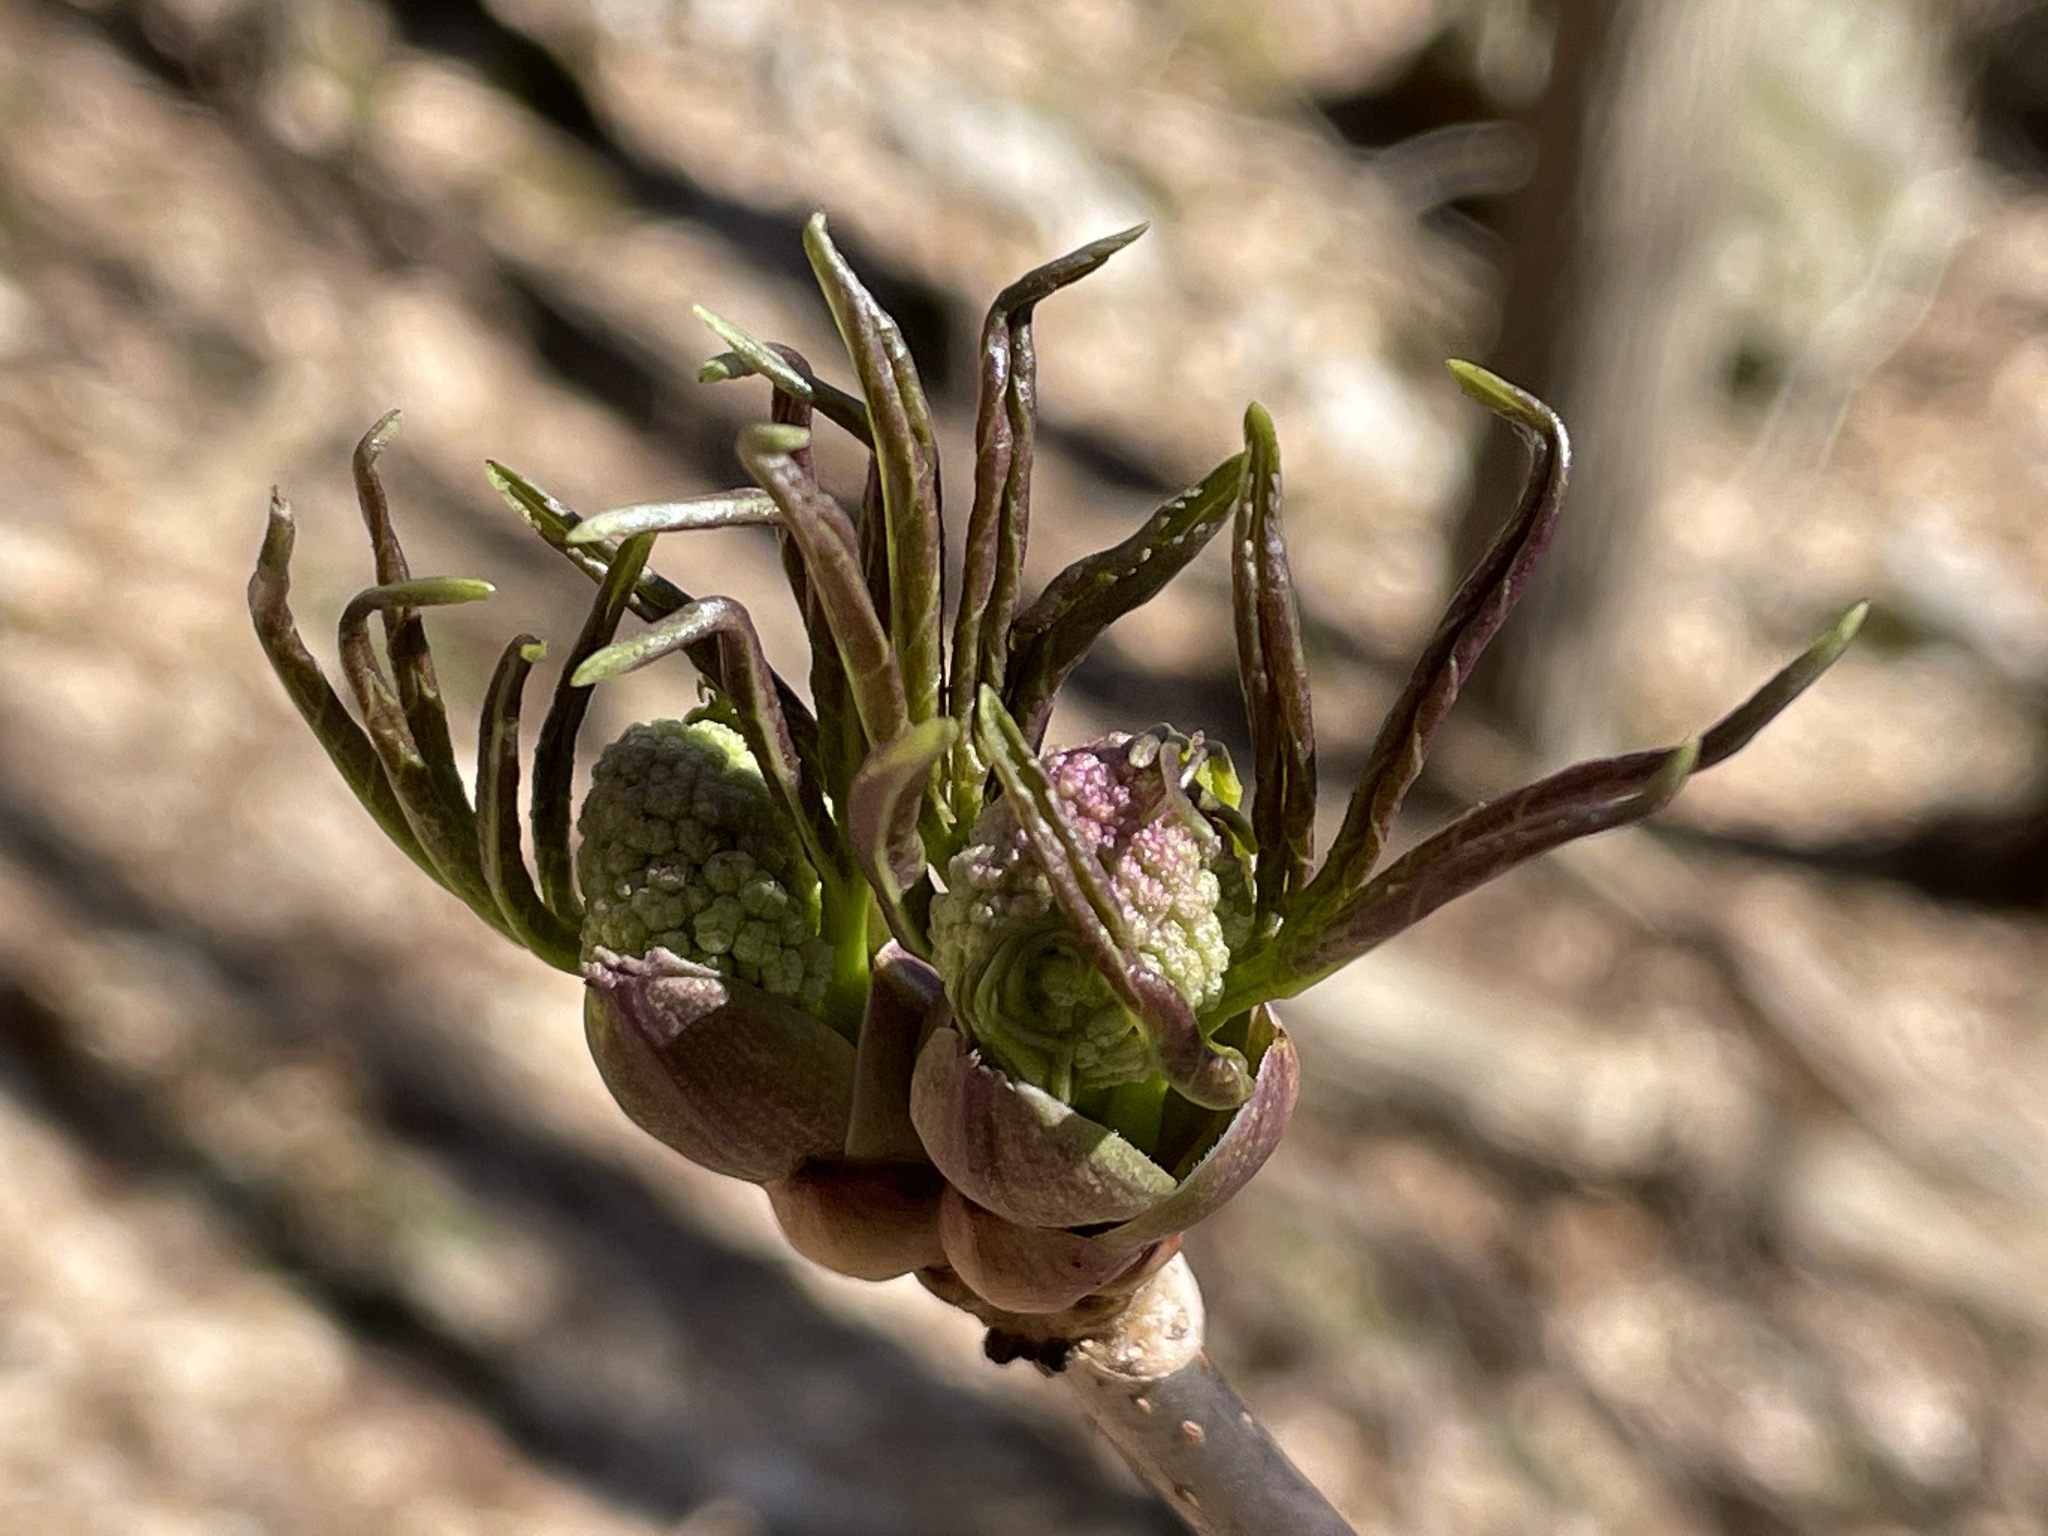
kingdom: Plantae
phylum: Tracheophyta
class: Magnoliopsida
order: Dipsacales
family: Viburnaceae
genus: Sambucus
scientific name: Sambucus racemosa
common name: Red-berried elder
